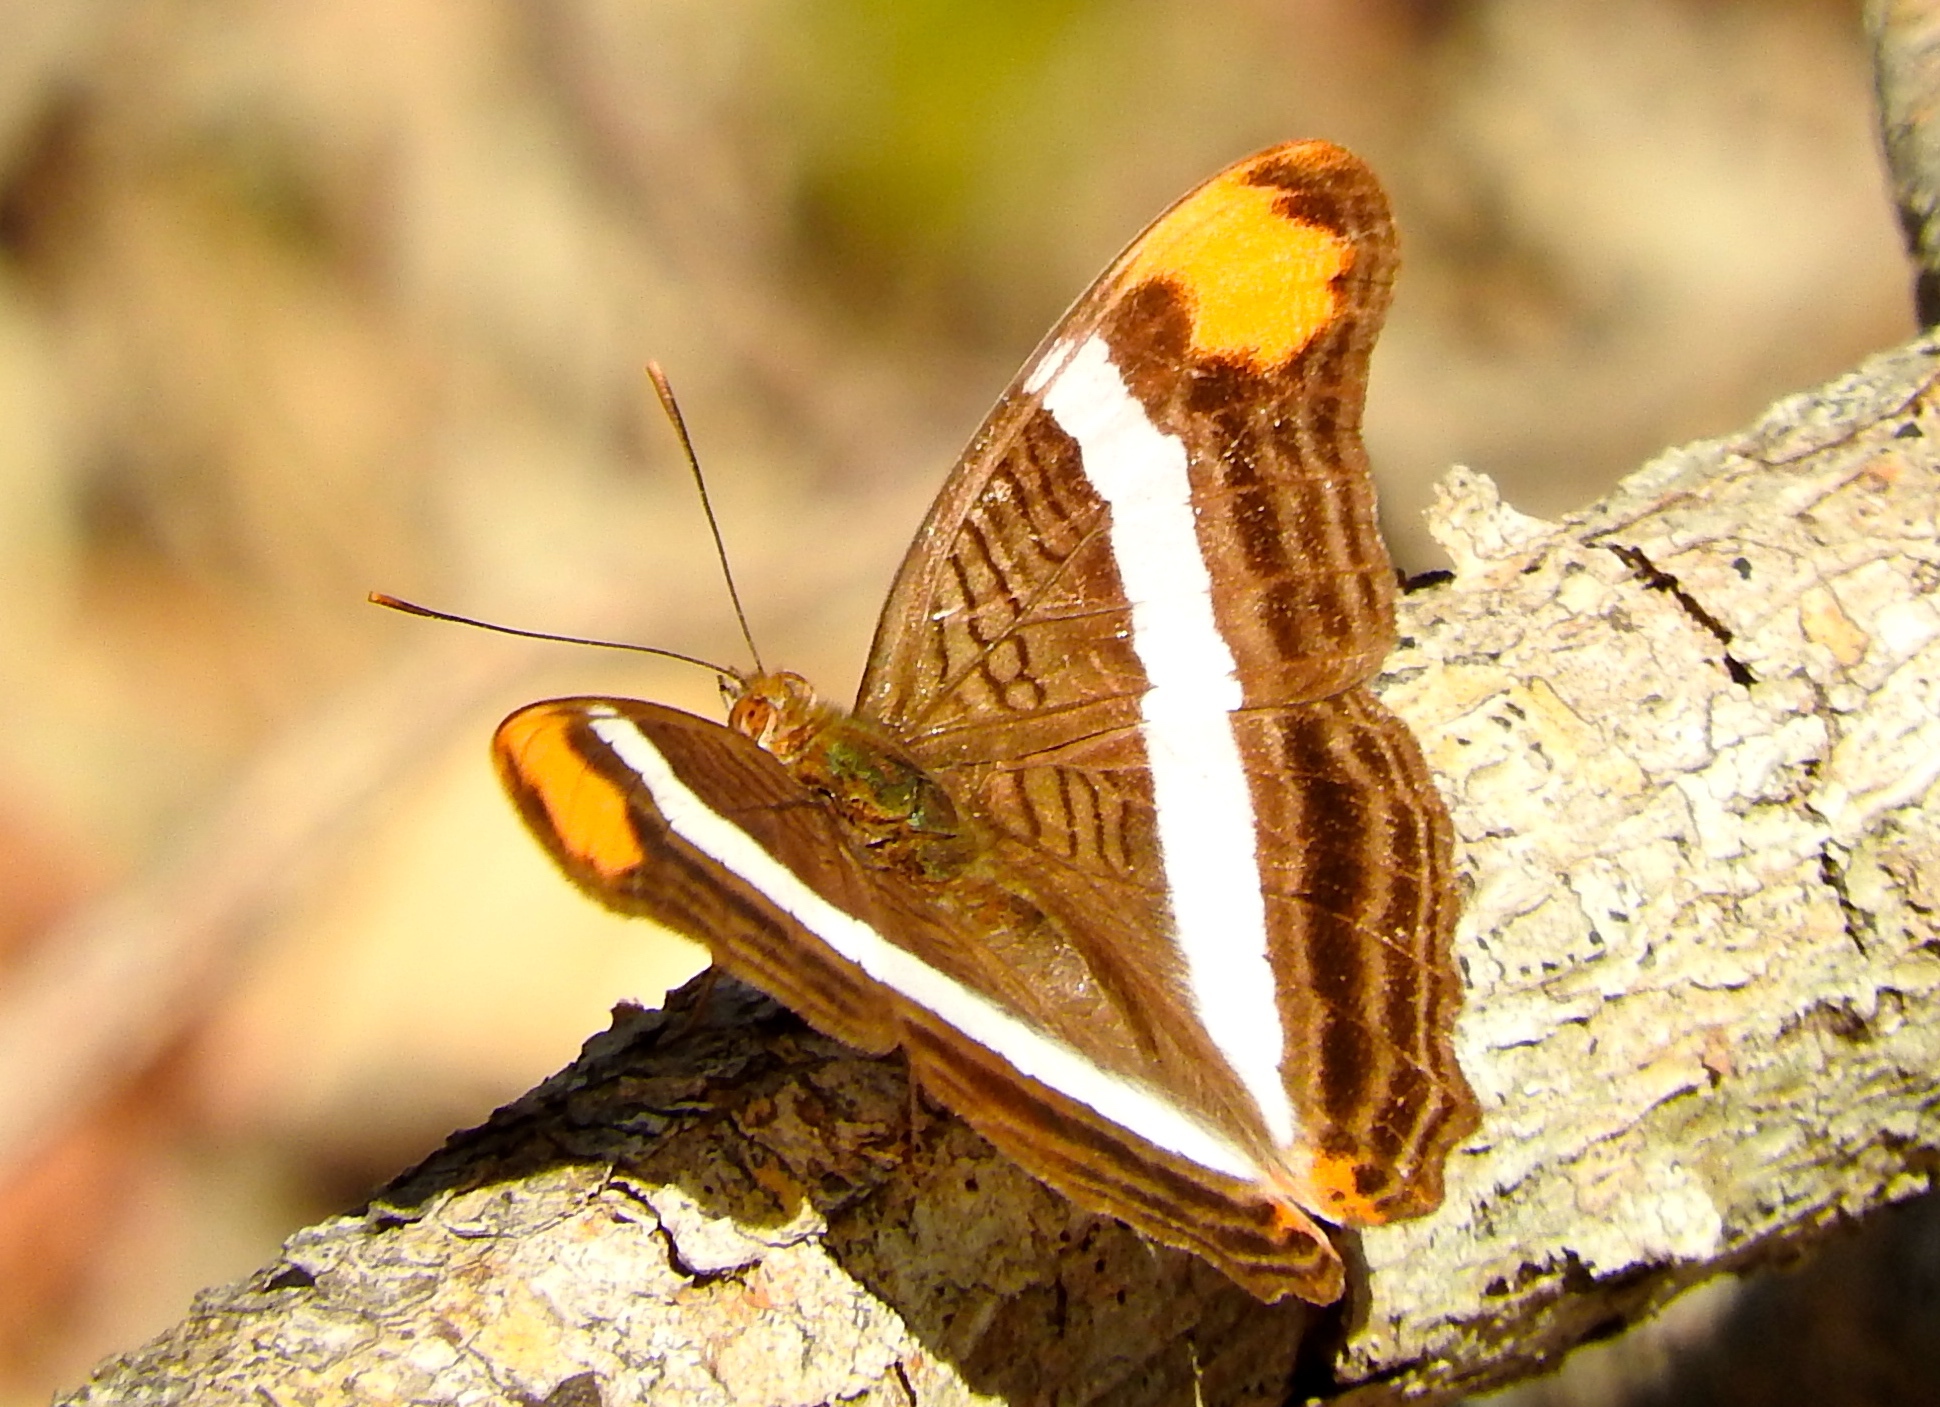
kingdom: Animalia
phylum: Arthropoda
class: Insecta
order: Lepidoptera
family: Nymphalidae
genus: Limenitis
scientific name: Limenitis fessonia
